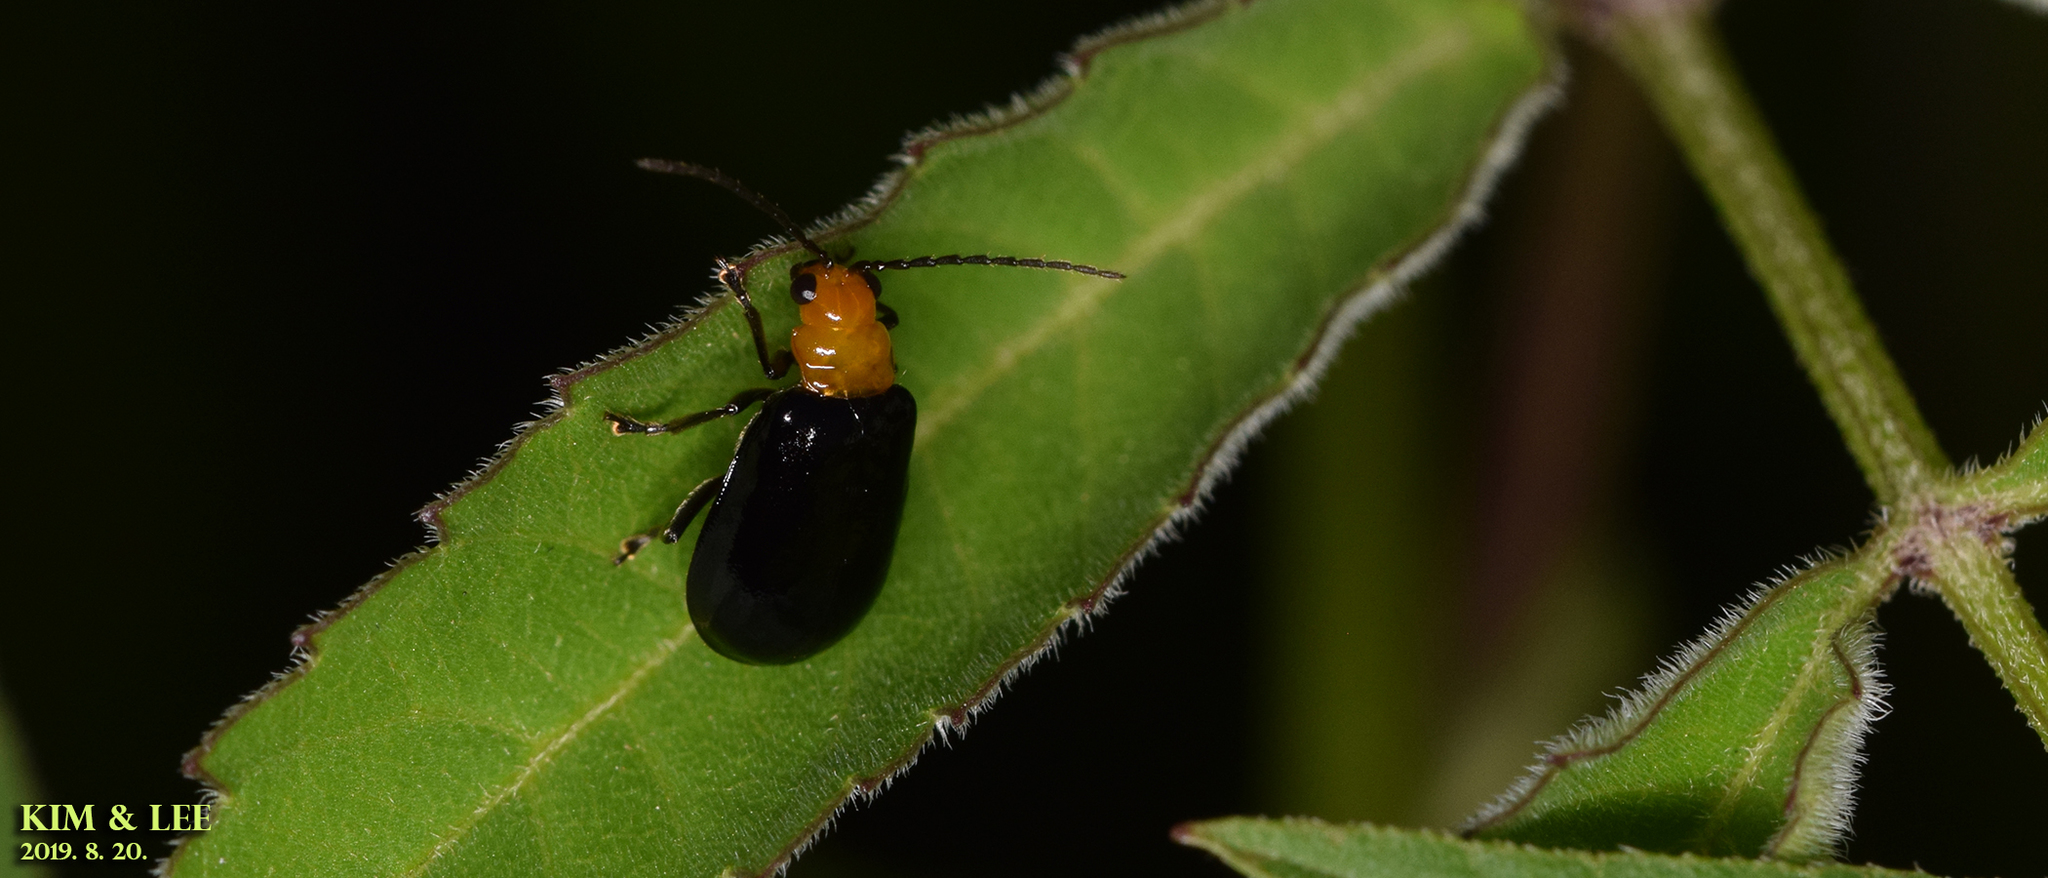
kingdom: Animalia
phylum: Arthropoda
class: Insecta
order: Coleoptera
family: Chrysomelidae
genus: Aulacophora
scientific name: Aulacophora nigripennis
